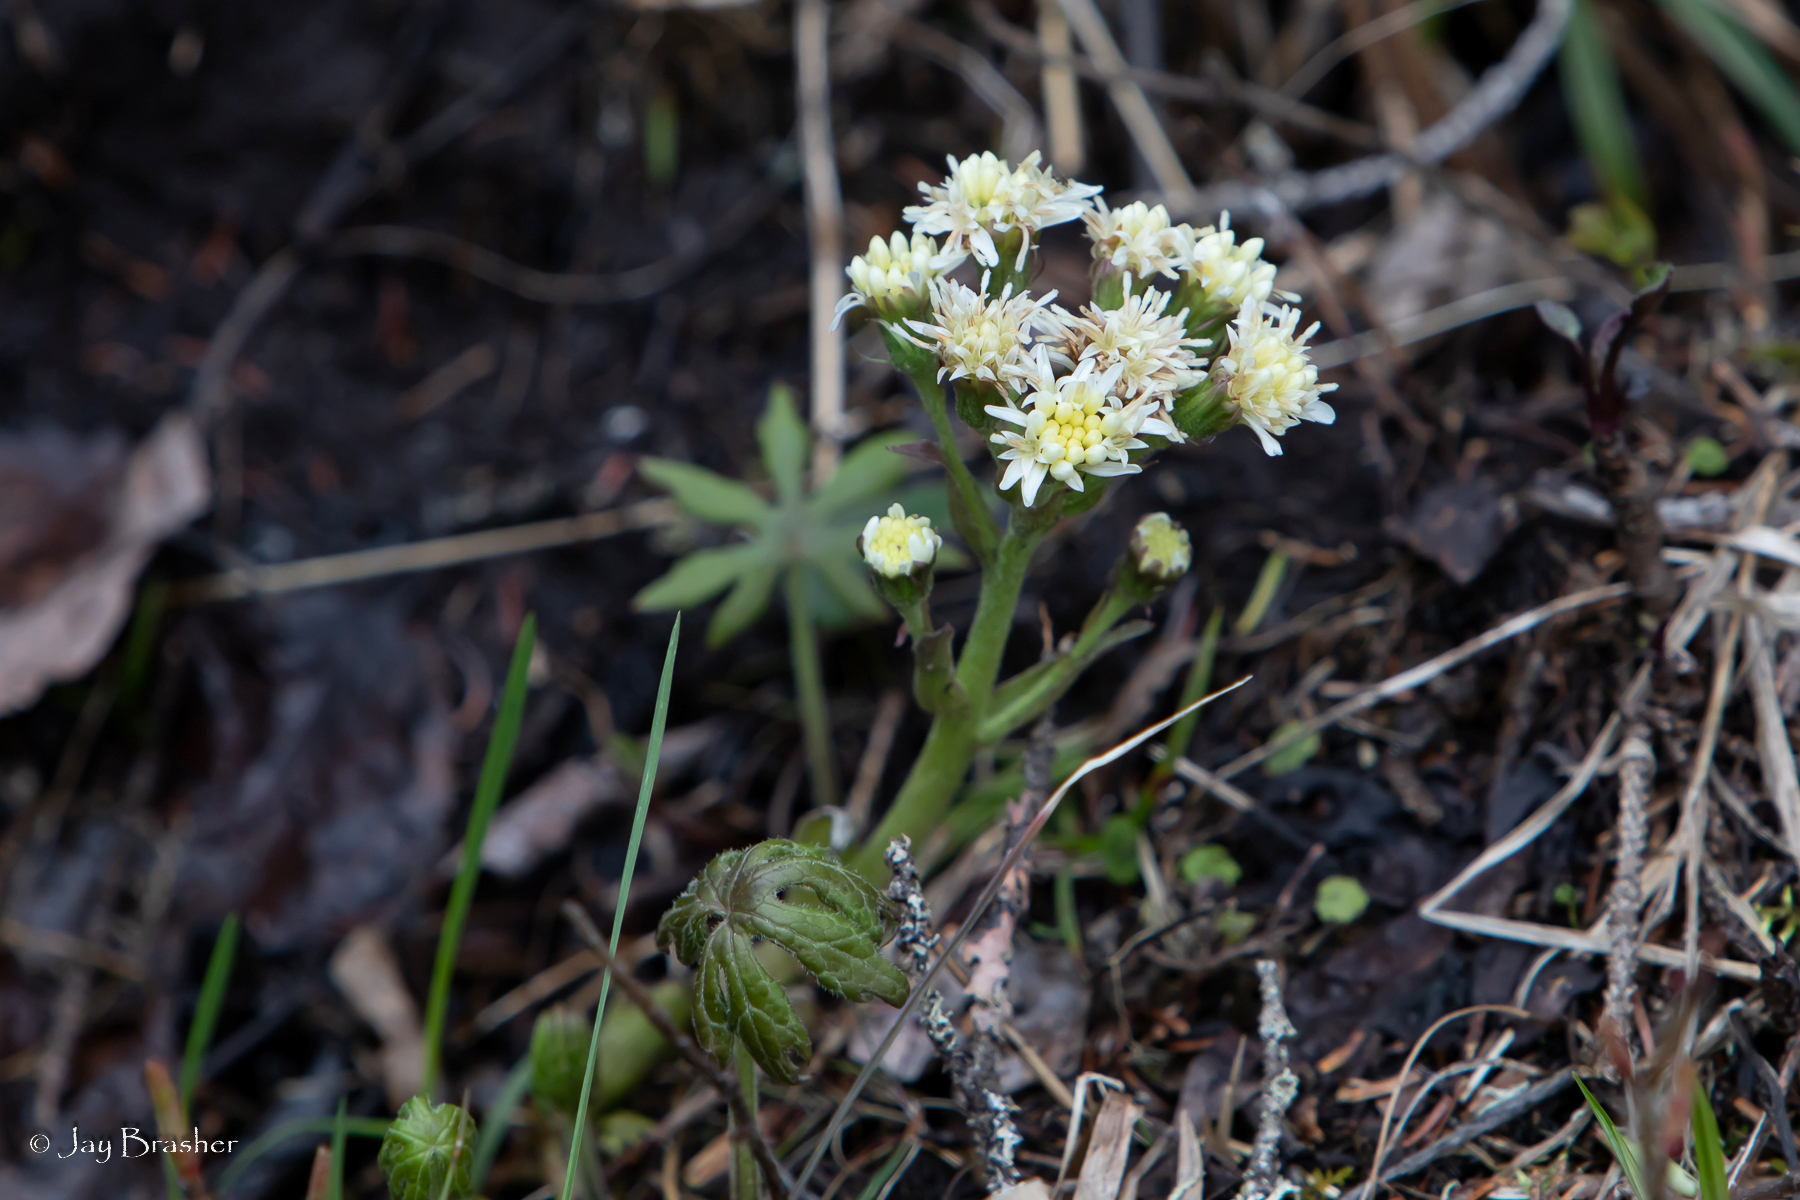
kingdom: Plantae
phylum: Tracheophyta
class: Magnoliopsida
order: Asterales
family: Asteraceae
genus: Petasites
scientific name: Petasites frigidus
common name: Arctic butterbur
